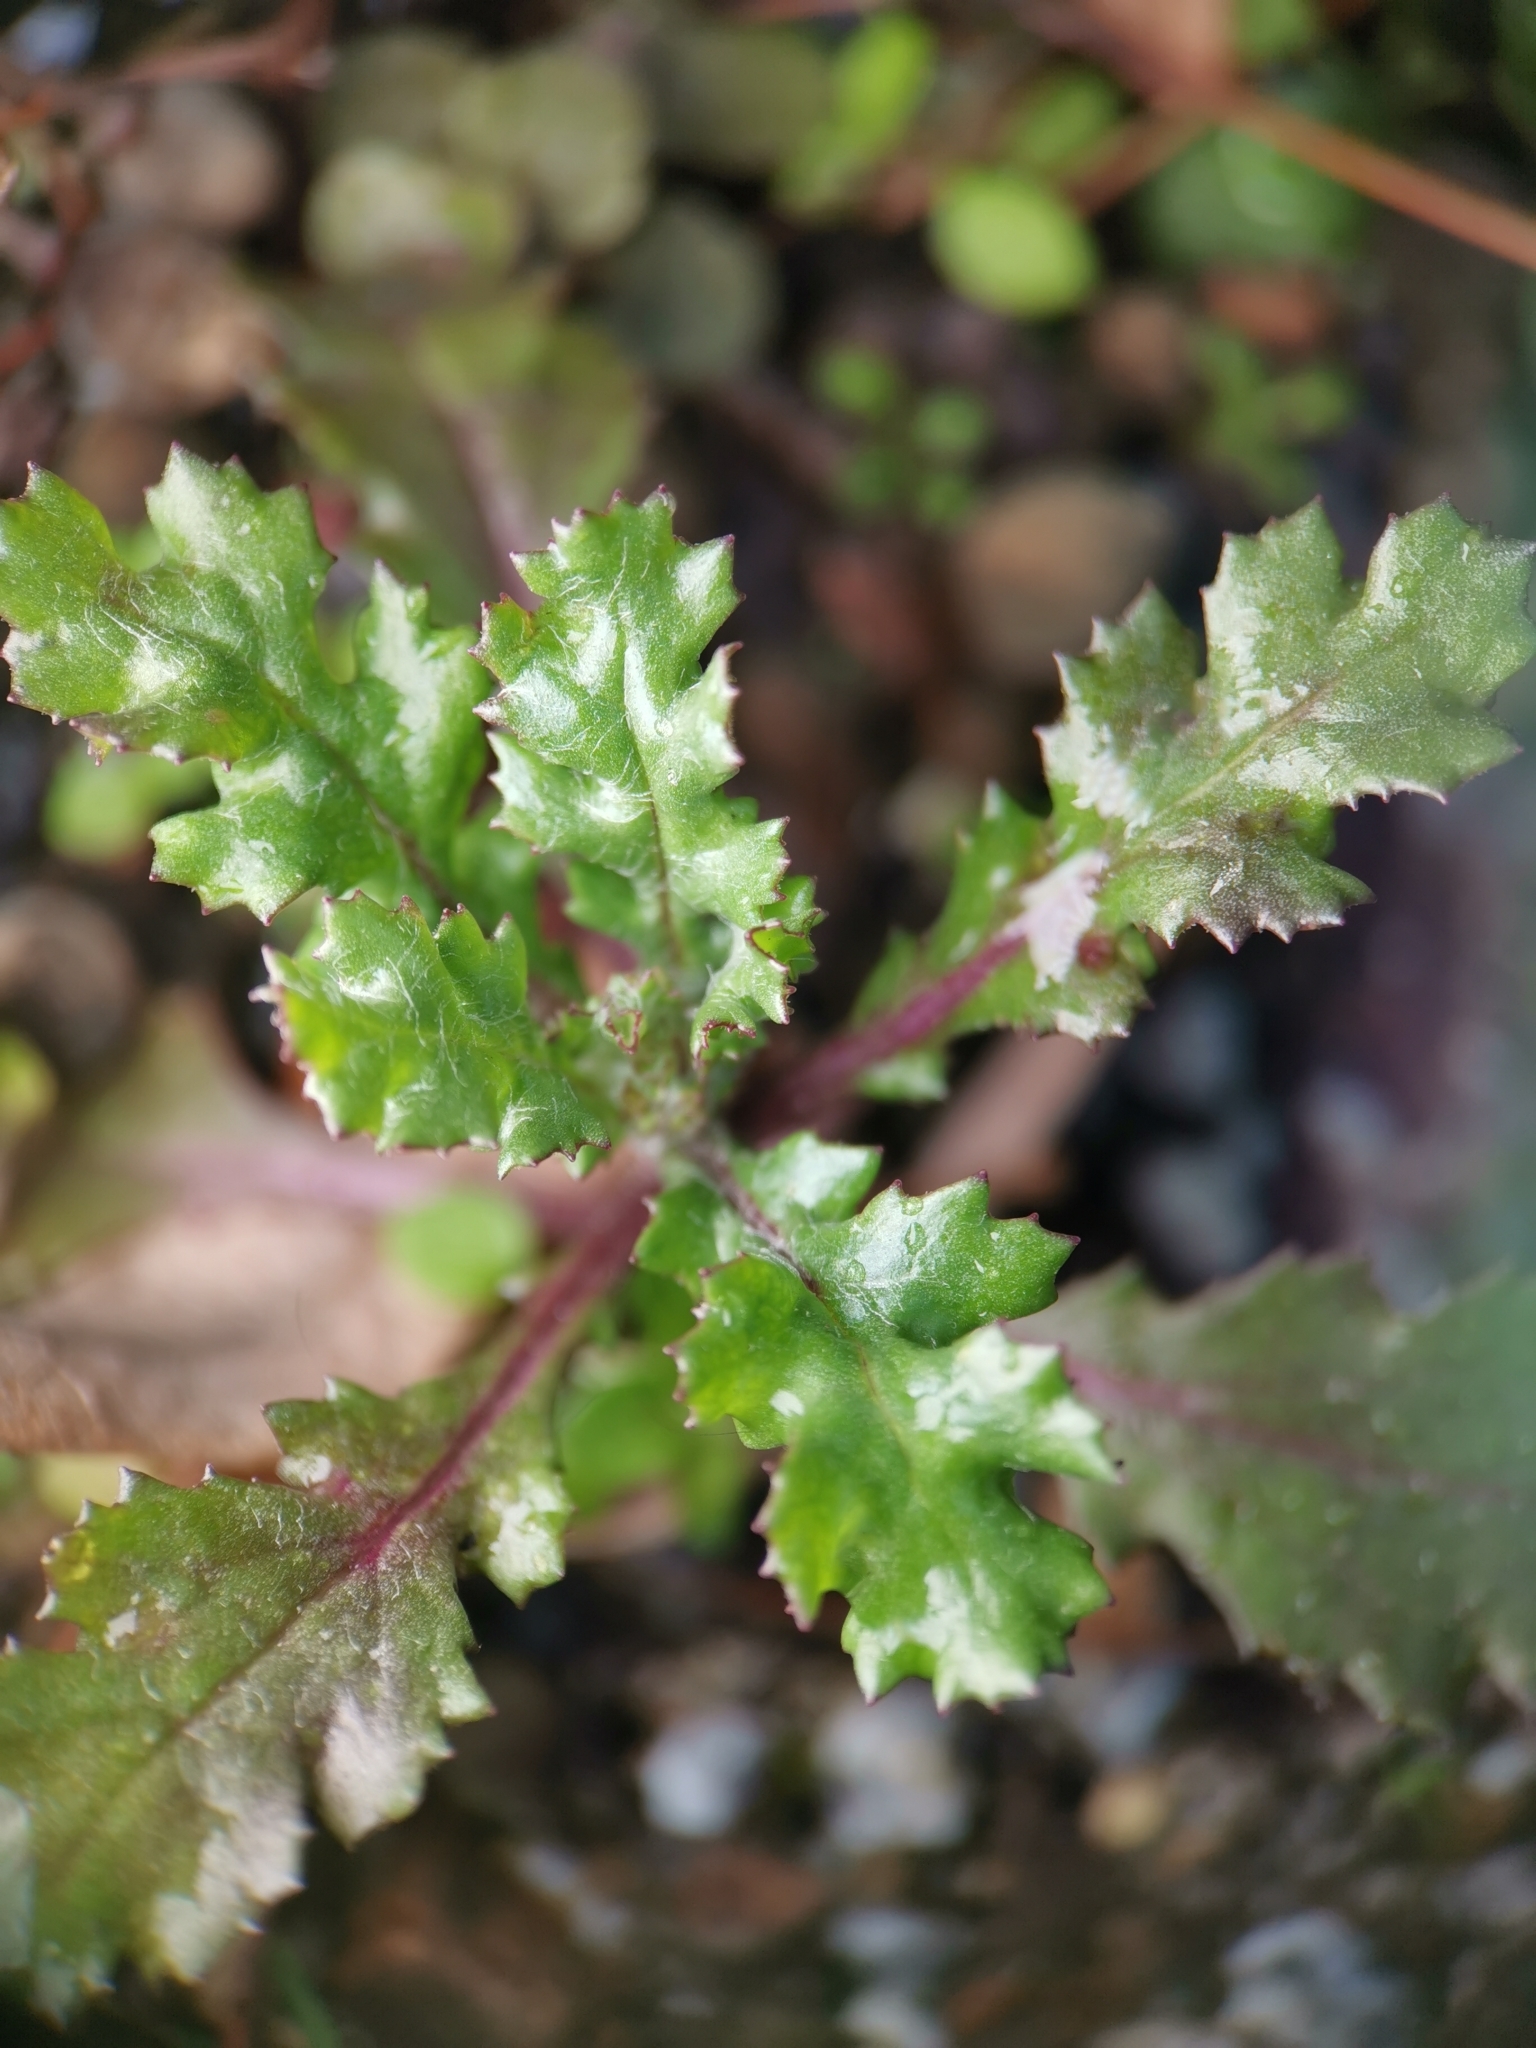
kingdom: Plantae
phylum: Tracheophyta
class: Magnoliopsida
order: Asterales
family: Asteraceae
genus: Senecio
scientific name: Senecio vulgaris
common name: Old-man-in-the-spring
